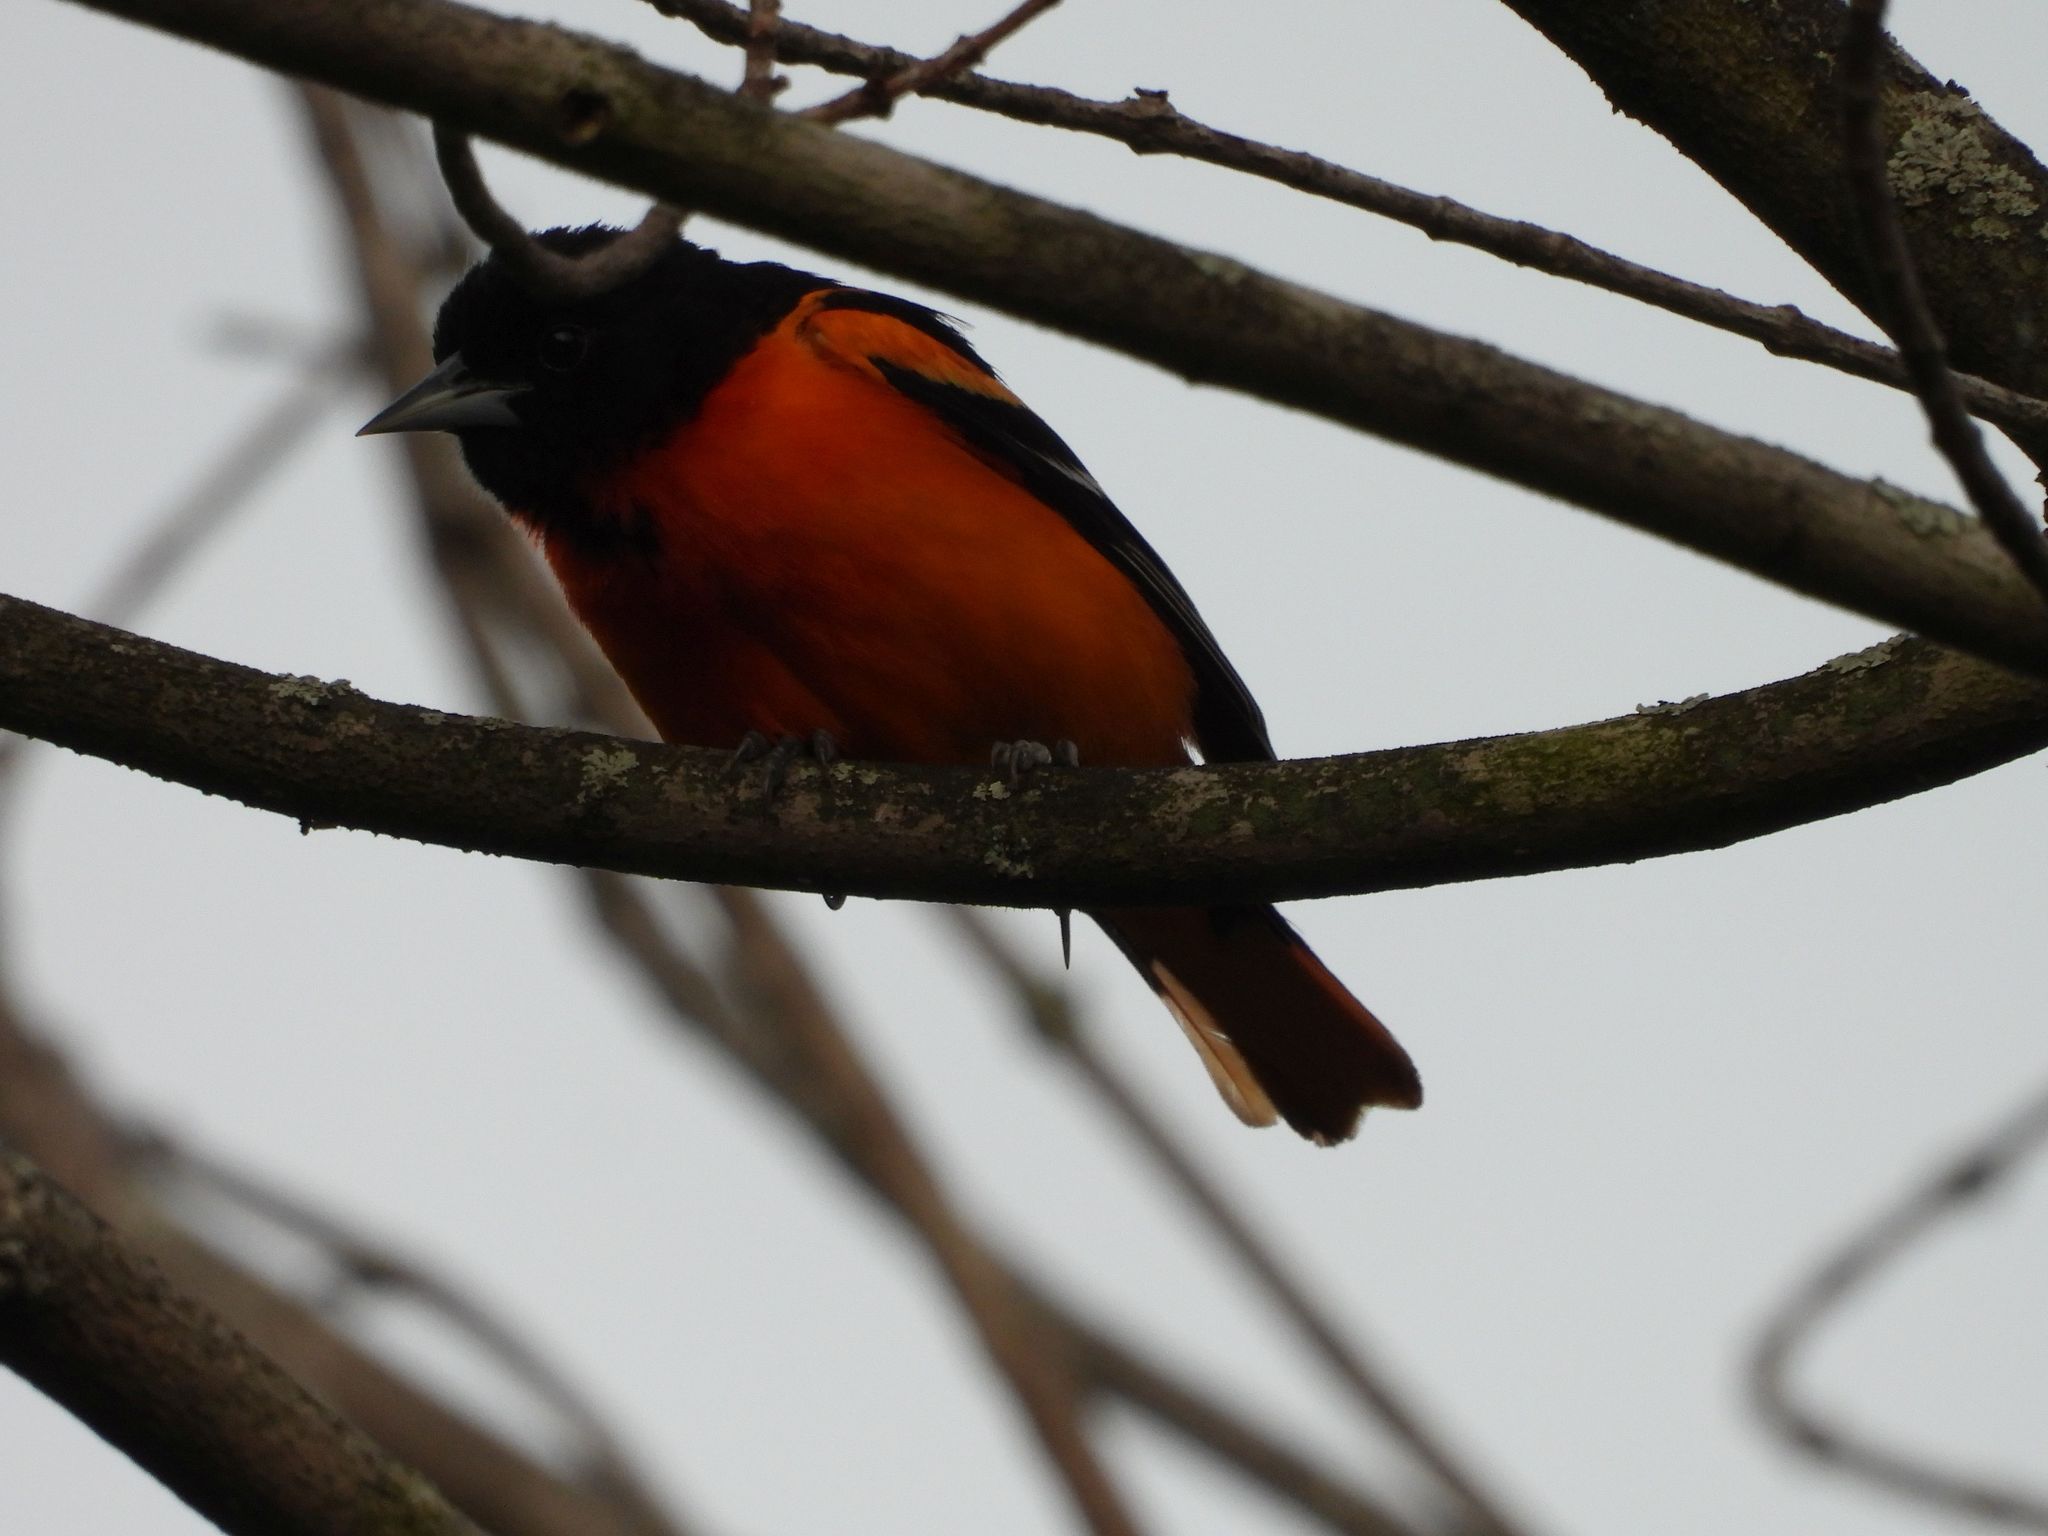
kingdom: Animalia
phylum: Chordata
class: Aves
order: Passeriformes
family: Icteridae
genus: Icterus
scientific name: Icterus galbula
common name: Baltimore oriole
